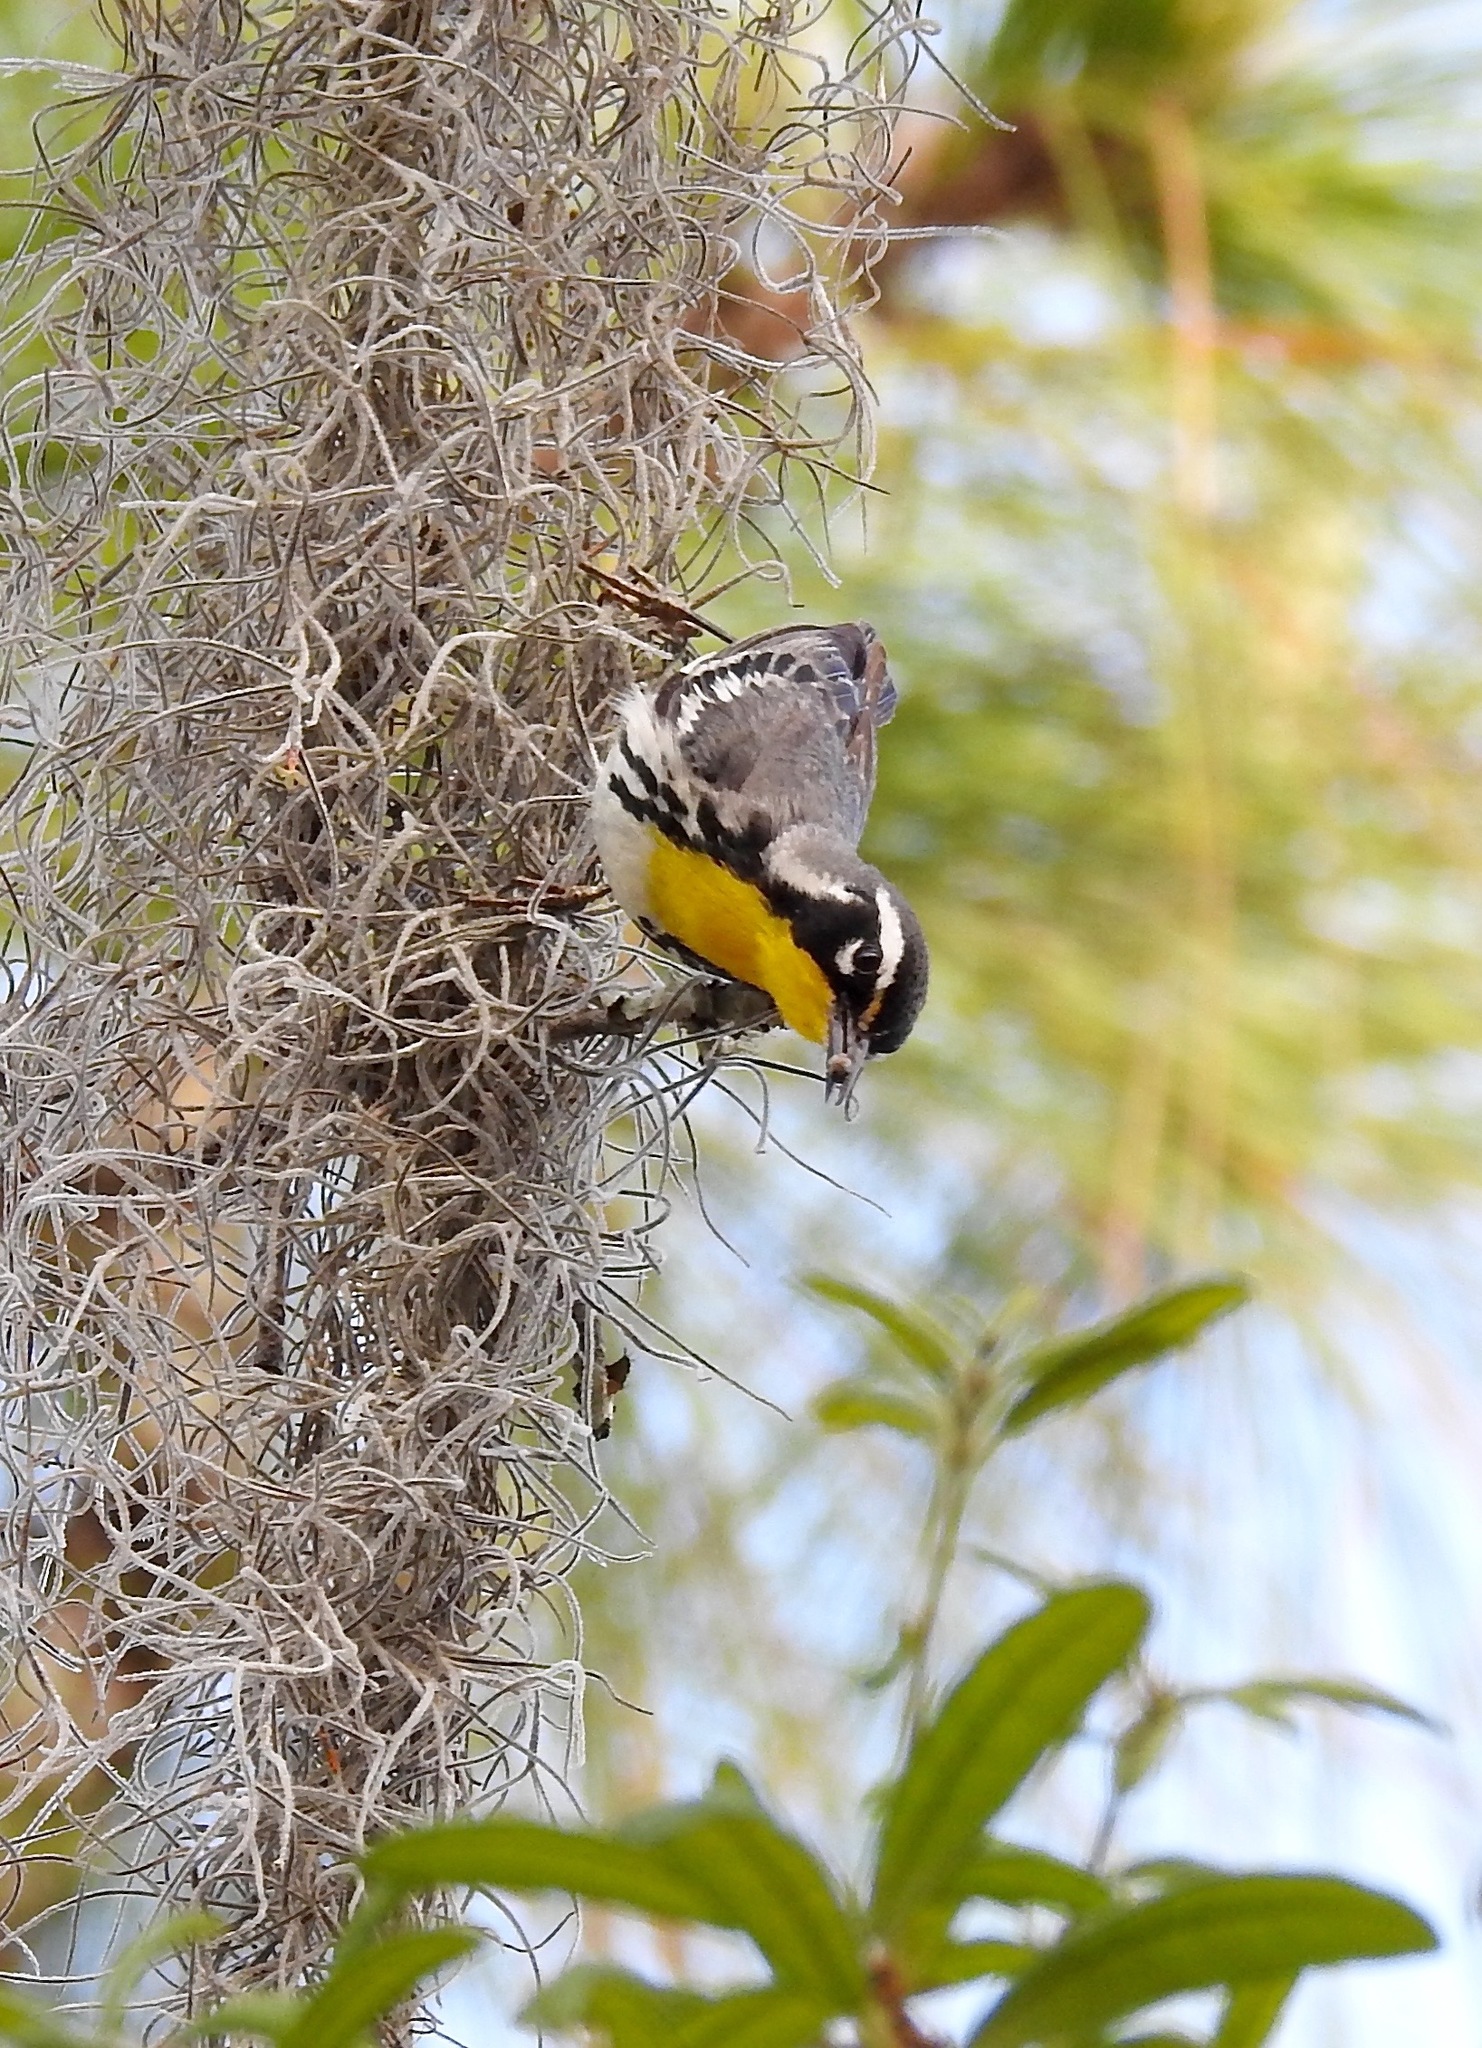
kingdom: Animalia
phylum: Chordata
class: Aves
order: Passeriformes
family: Parulidae
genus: Setophaga
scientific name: Setophaga dominica
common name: Yellow-throated warbler
